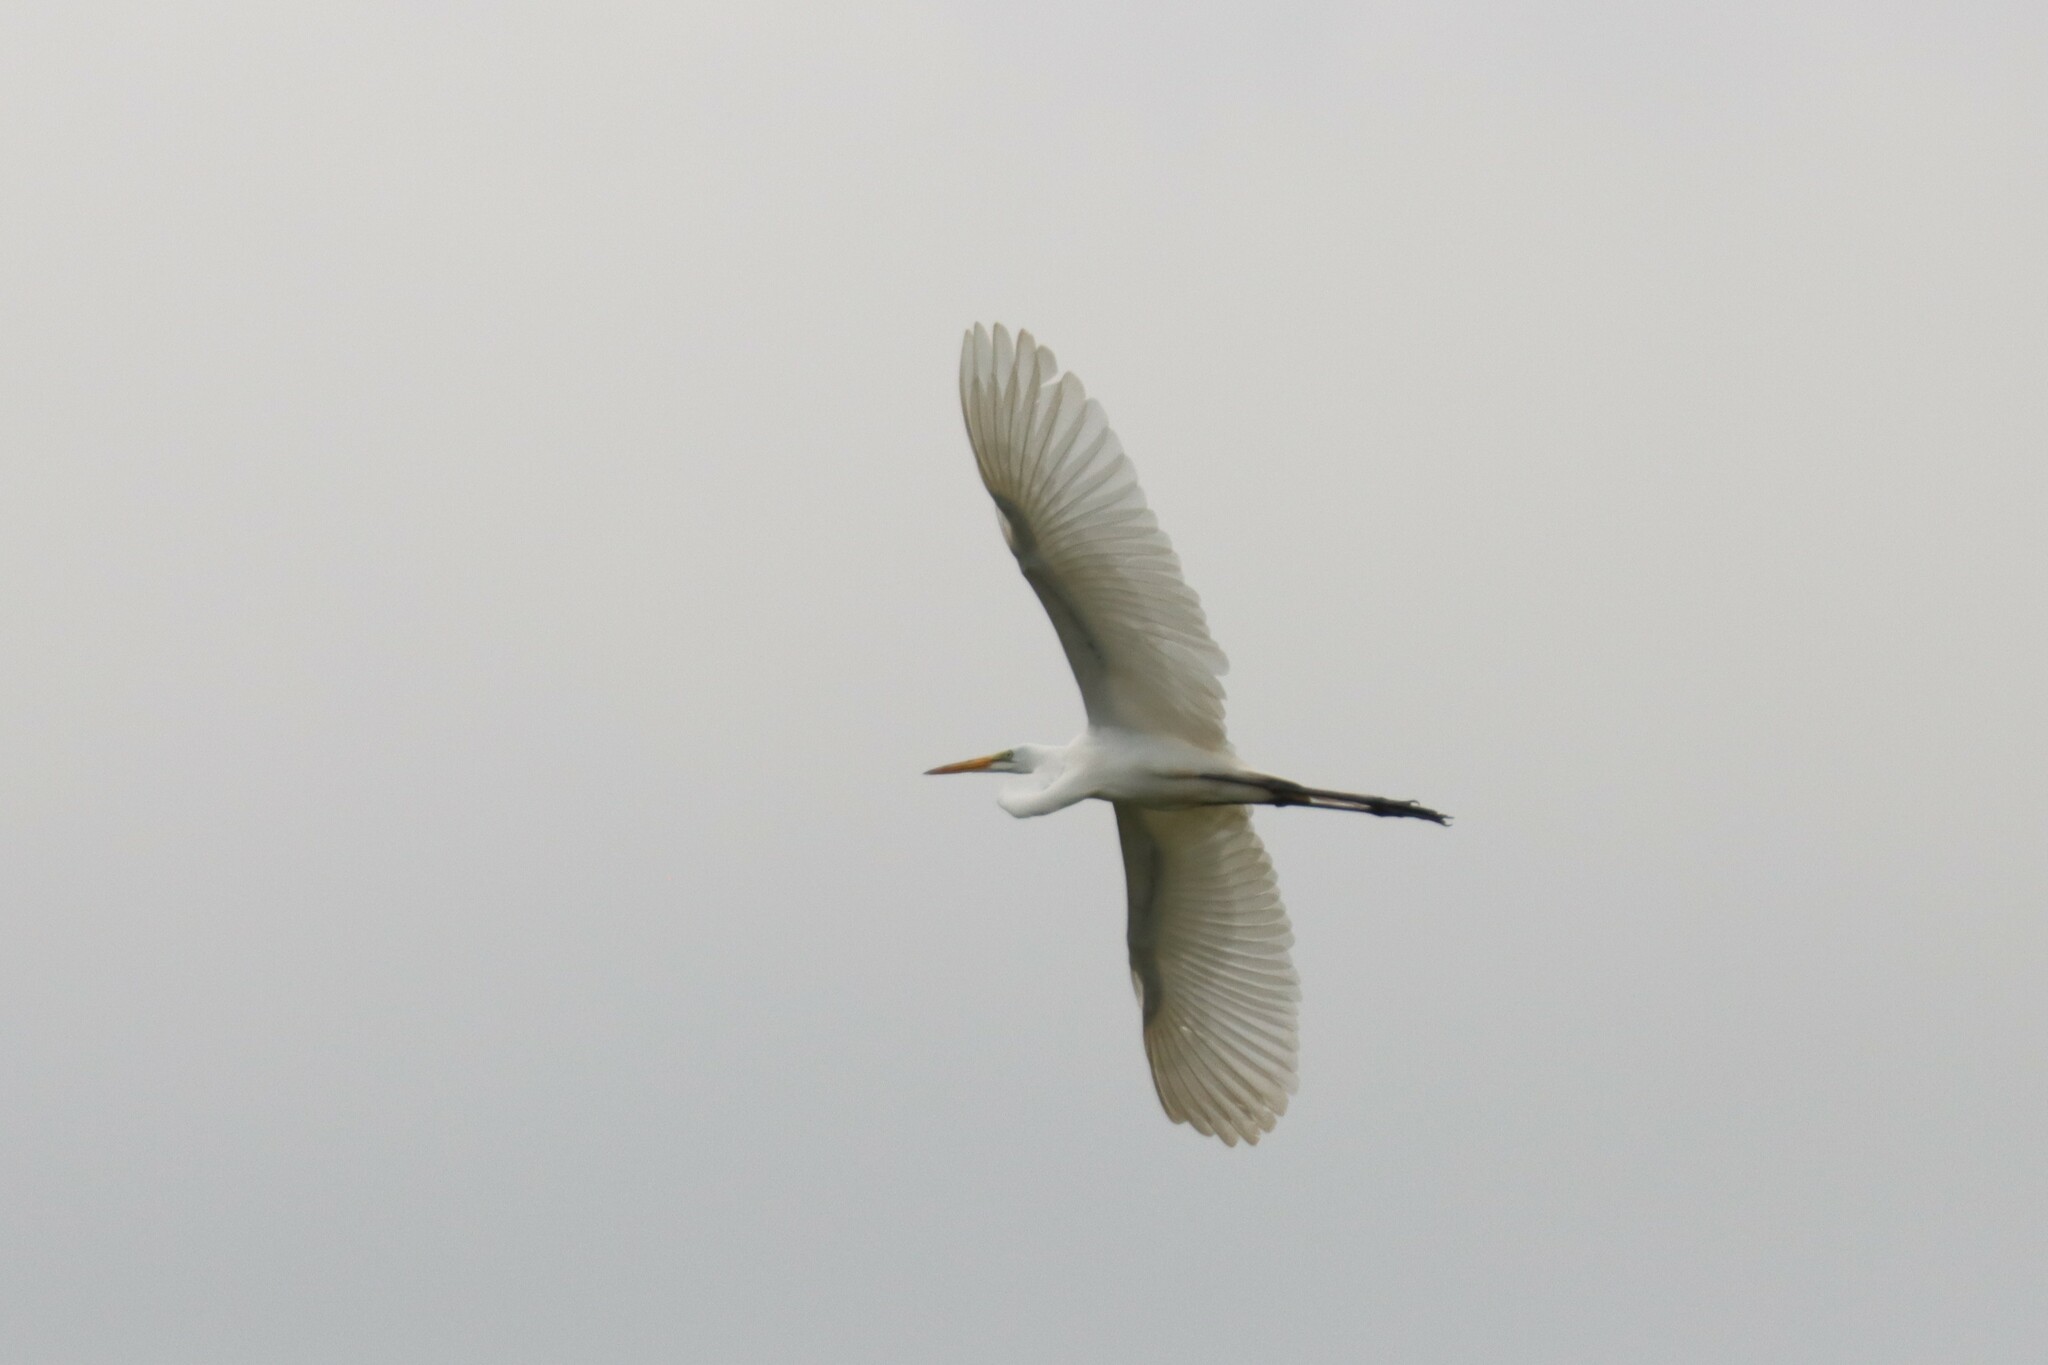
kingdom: Animalia
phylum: Chordata
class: Aves
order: Pelecaniformes
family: Ardeidae
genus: Ardea
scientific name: Ardea alba
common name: Great egret
